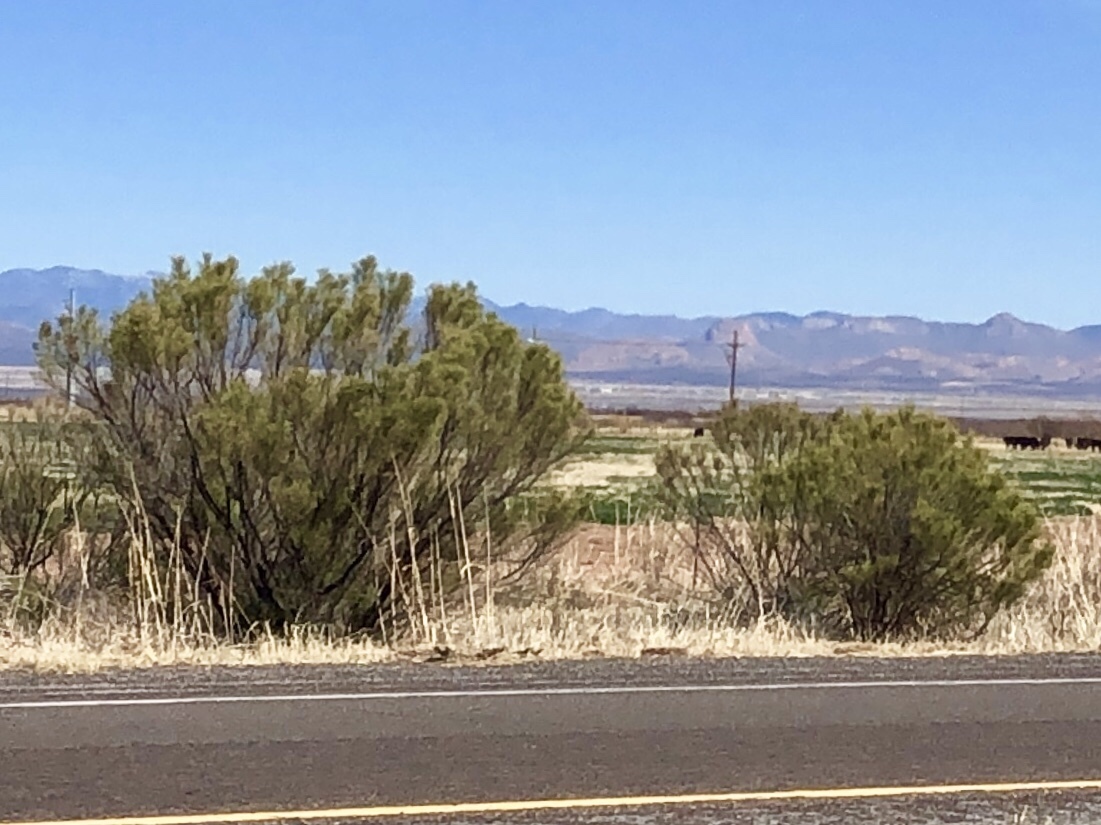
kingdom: Plantae
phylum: Tracheophyta
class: Magnoliopsida
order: Asterales
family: Asteraceae
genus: Baccharis
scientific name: Baccharis sarothroides
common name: Desert-broom
